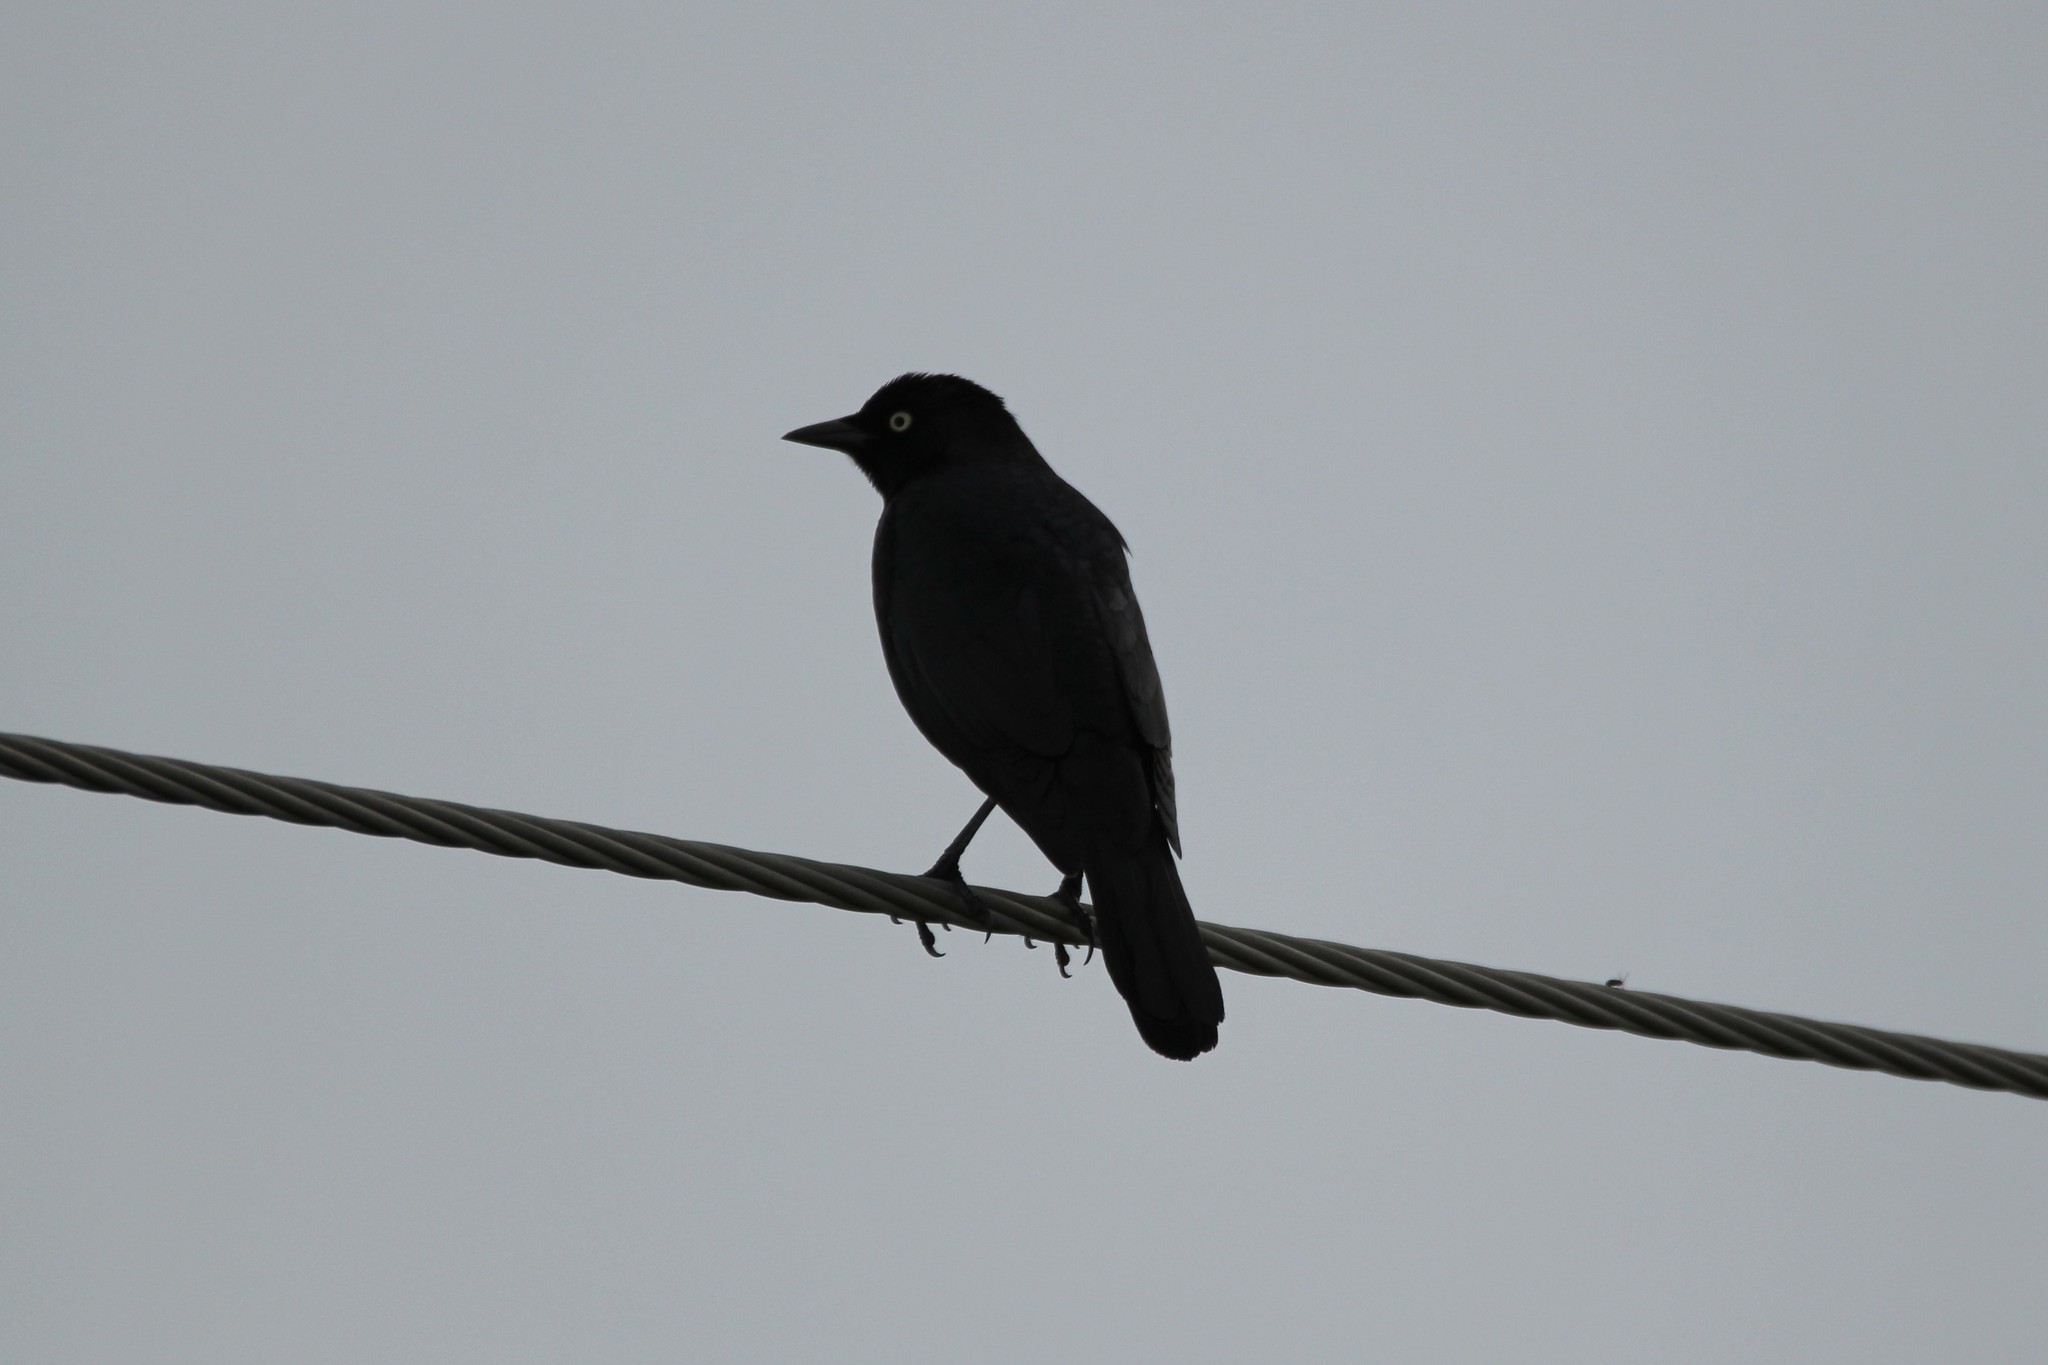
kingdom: Animalia
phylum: Chordata
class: Aves
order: Passeriformes
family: Icteridae
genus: Euphagus
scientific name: Euphagus cyanocephalus
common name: Brewer's blackbird
